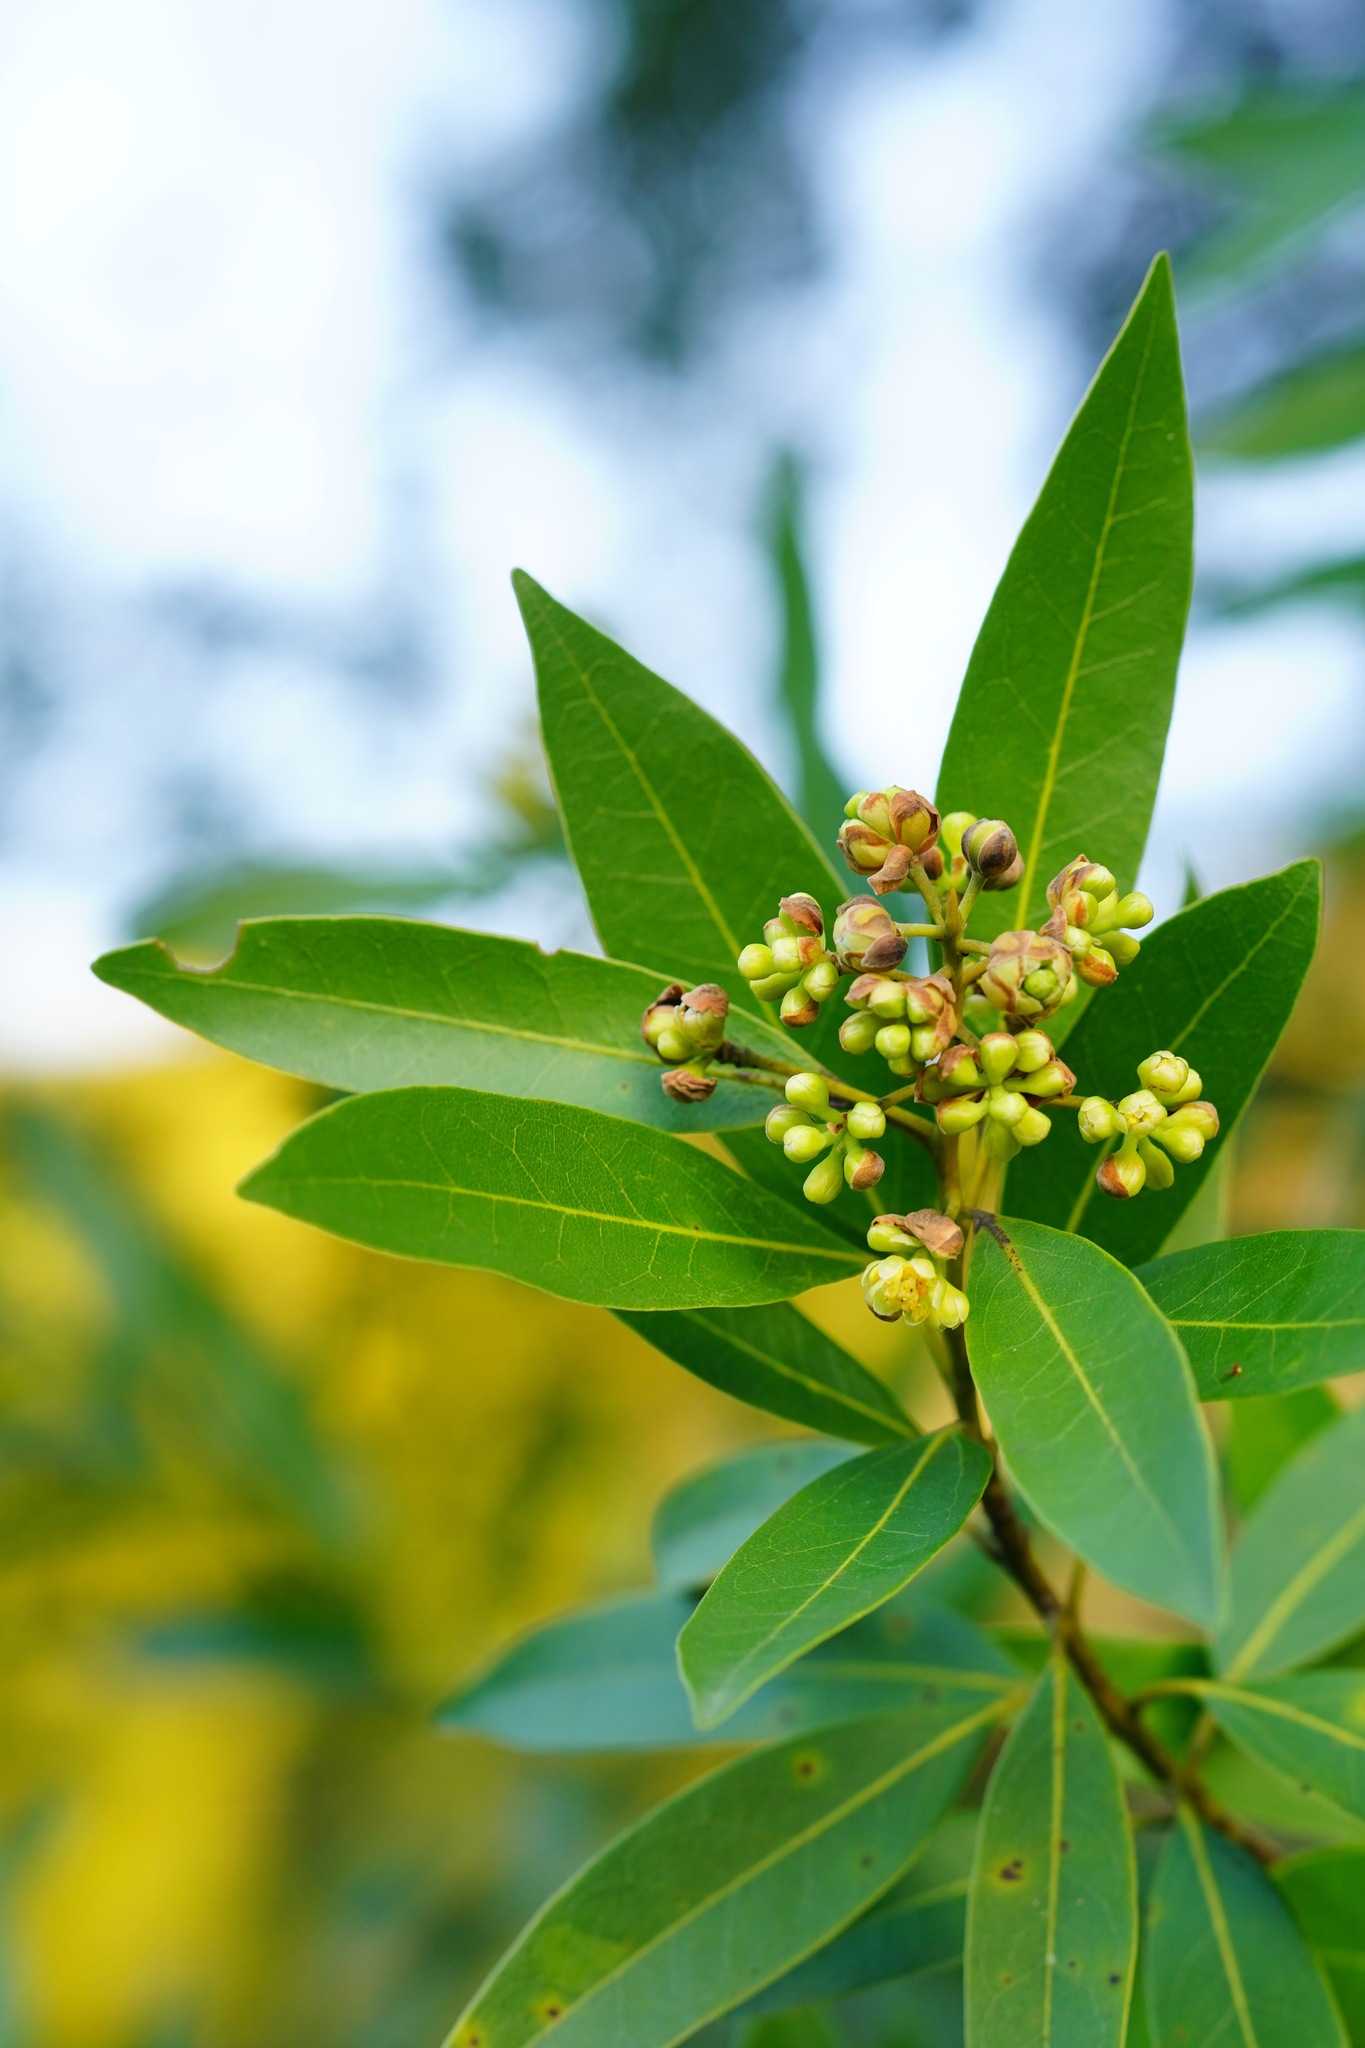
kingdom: Plantae
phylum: Tracheophyta
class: Magnoliopsida
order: Laurales
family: Lauraceae
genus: Umbellularia
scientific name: Umbellularia californica
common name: California bay
